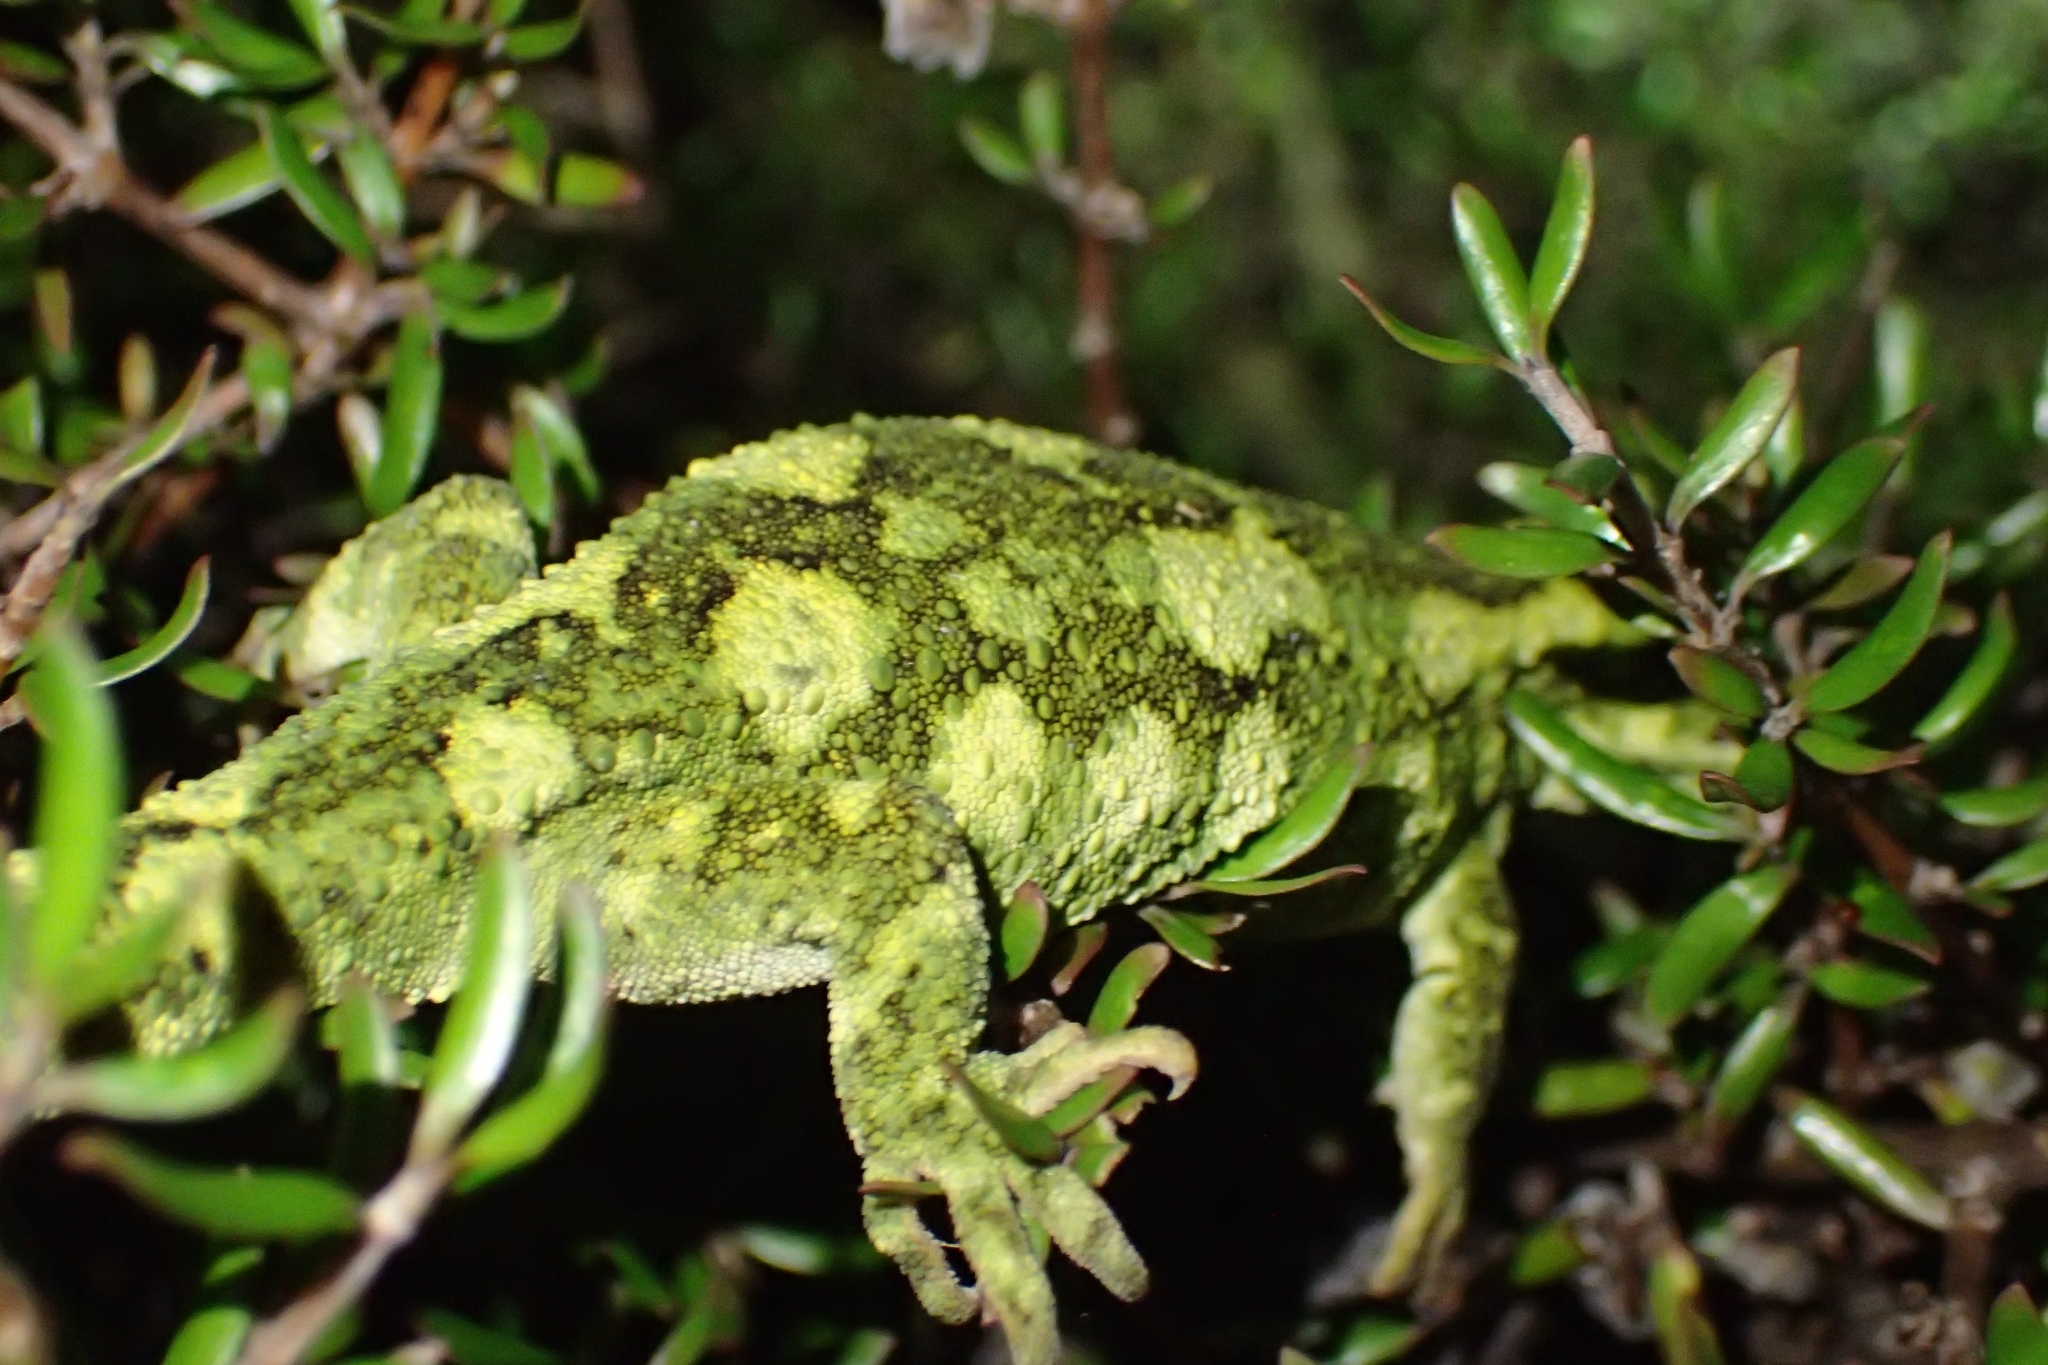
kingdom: Animalia
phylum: Chordata
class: Squamata
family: Diplodactylidae
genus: Naultinus
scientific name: Naultinus rudis
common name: Natural tree gecko
